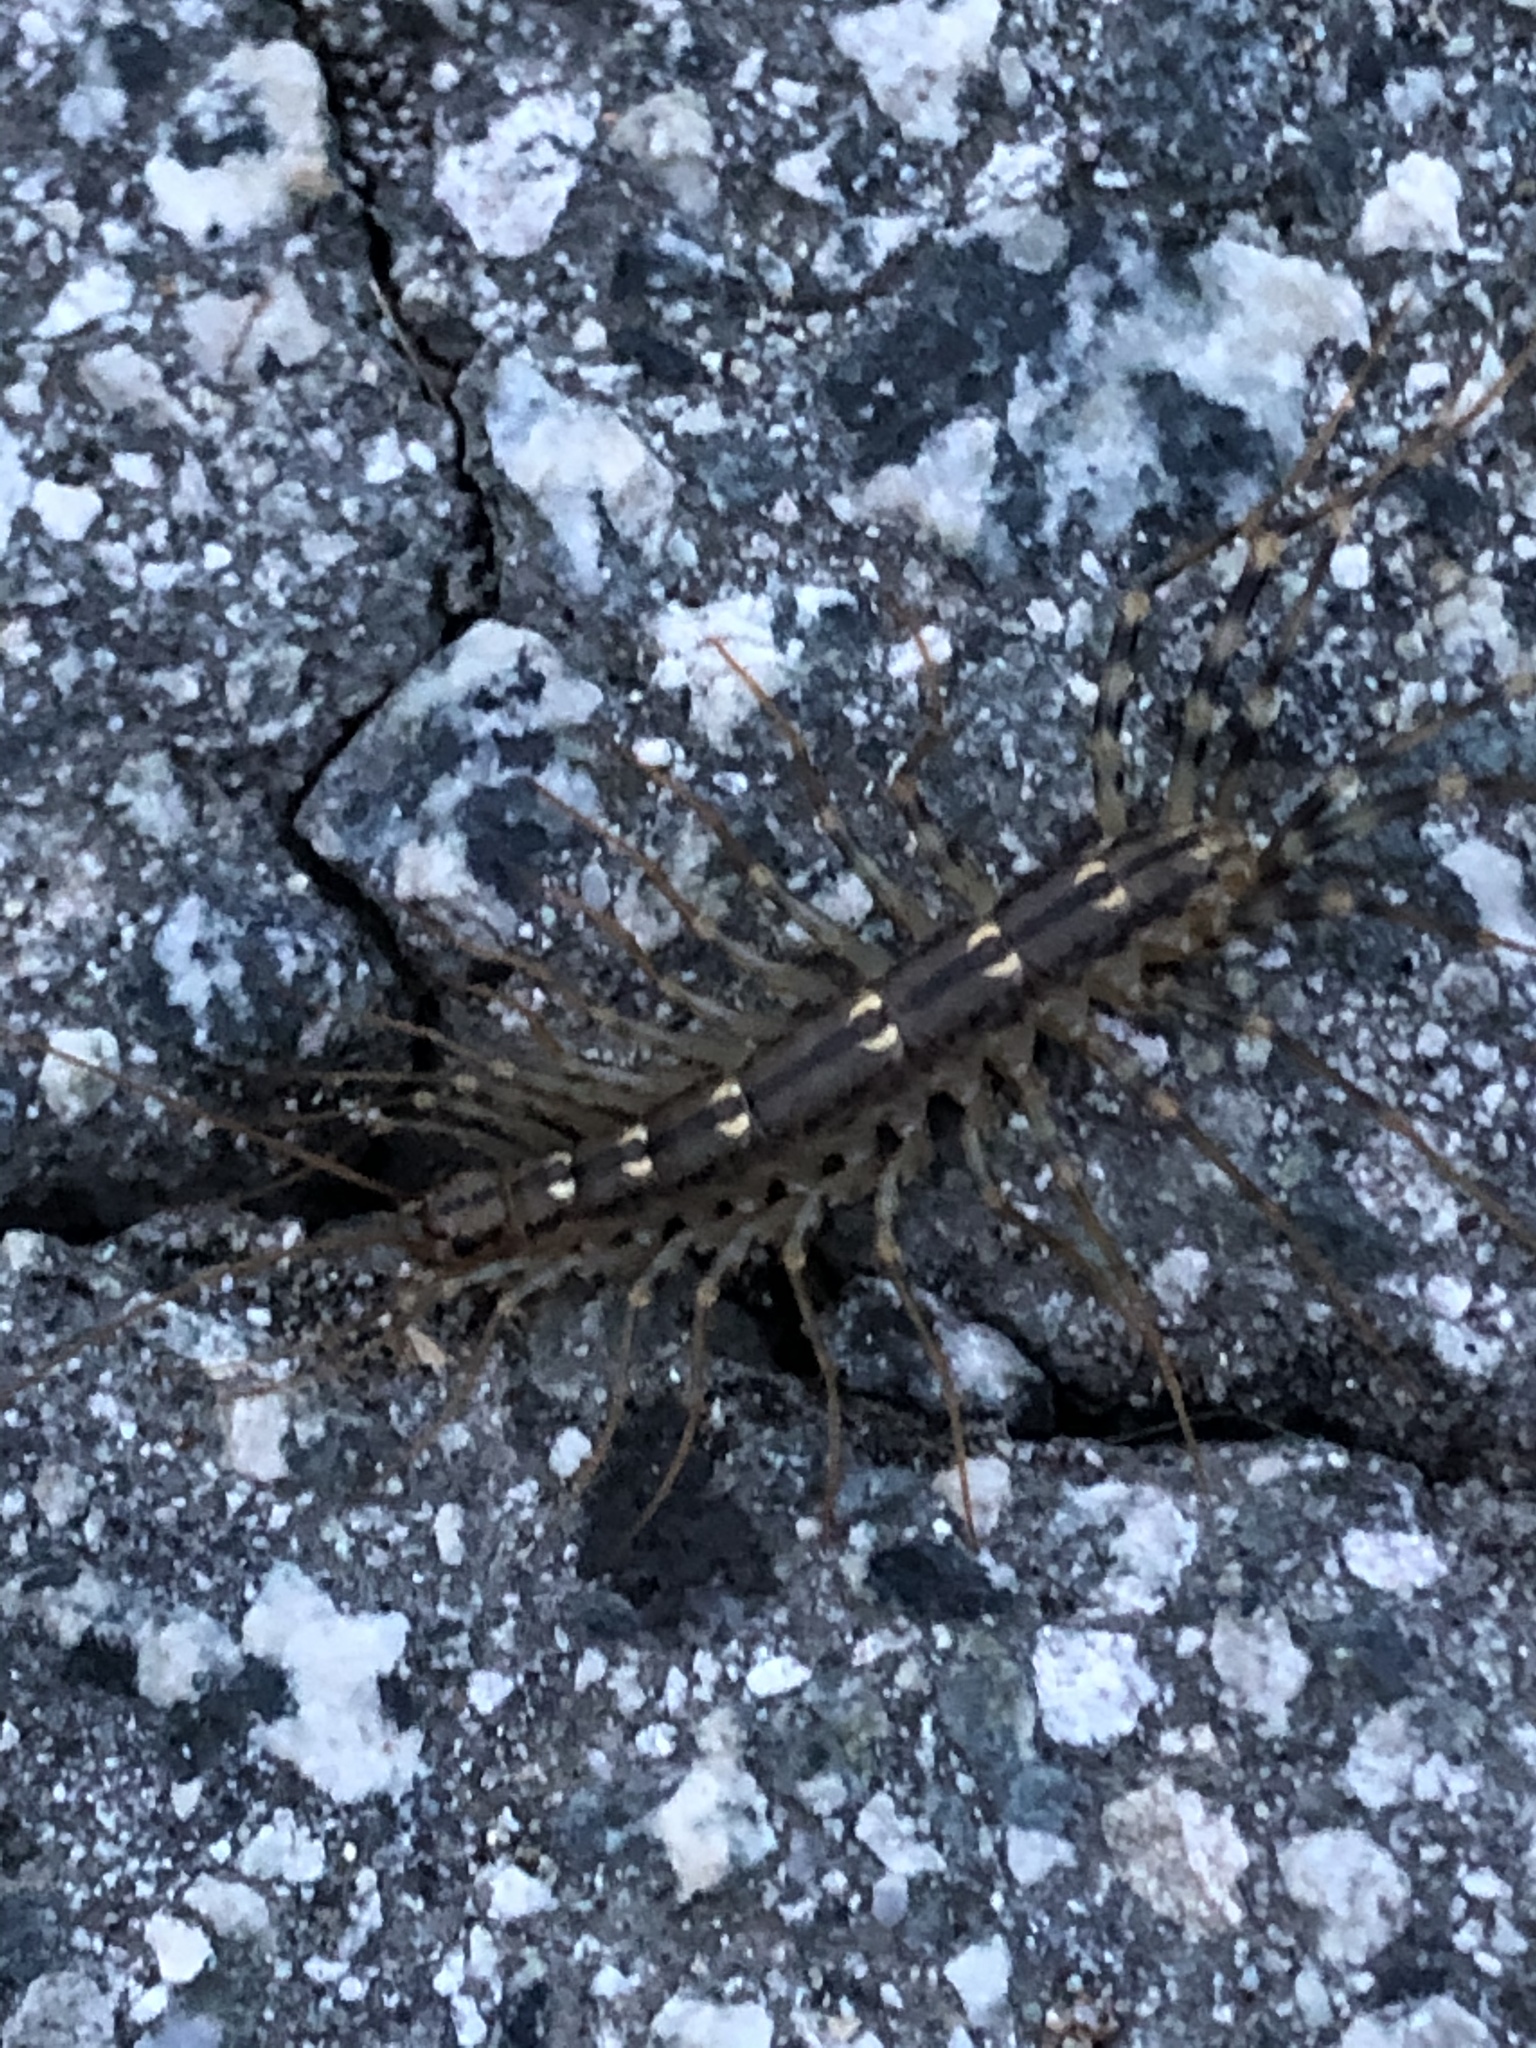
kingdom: Animalia
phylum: Arthropoda
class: Chilopoda
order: Scutigeromorpha
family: Scutigeridae
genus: Scutigera
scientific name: Scutigera coleoptrata
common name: House centipede
